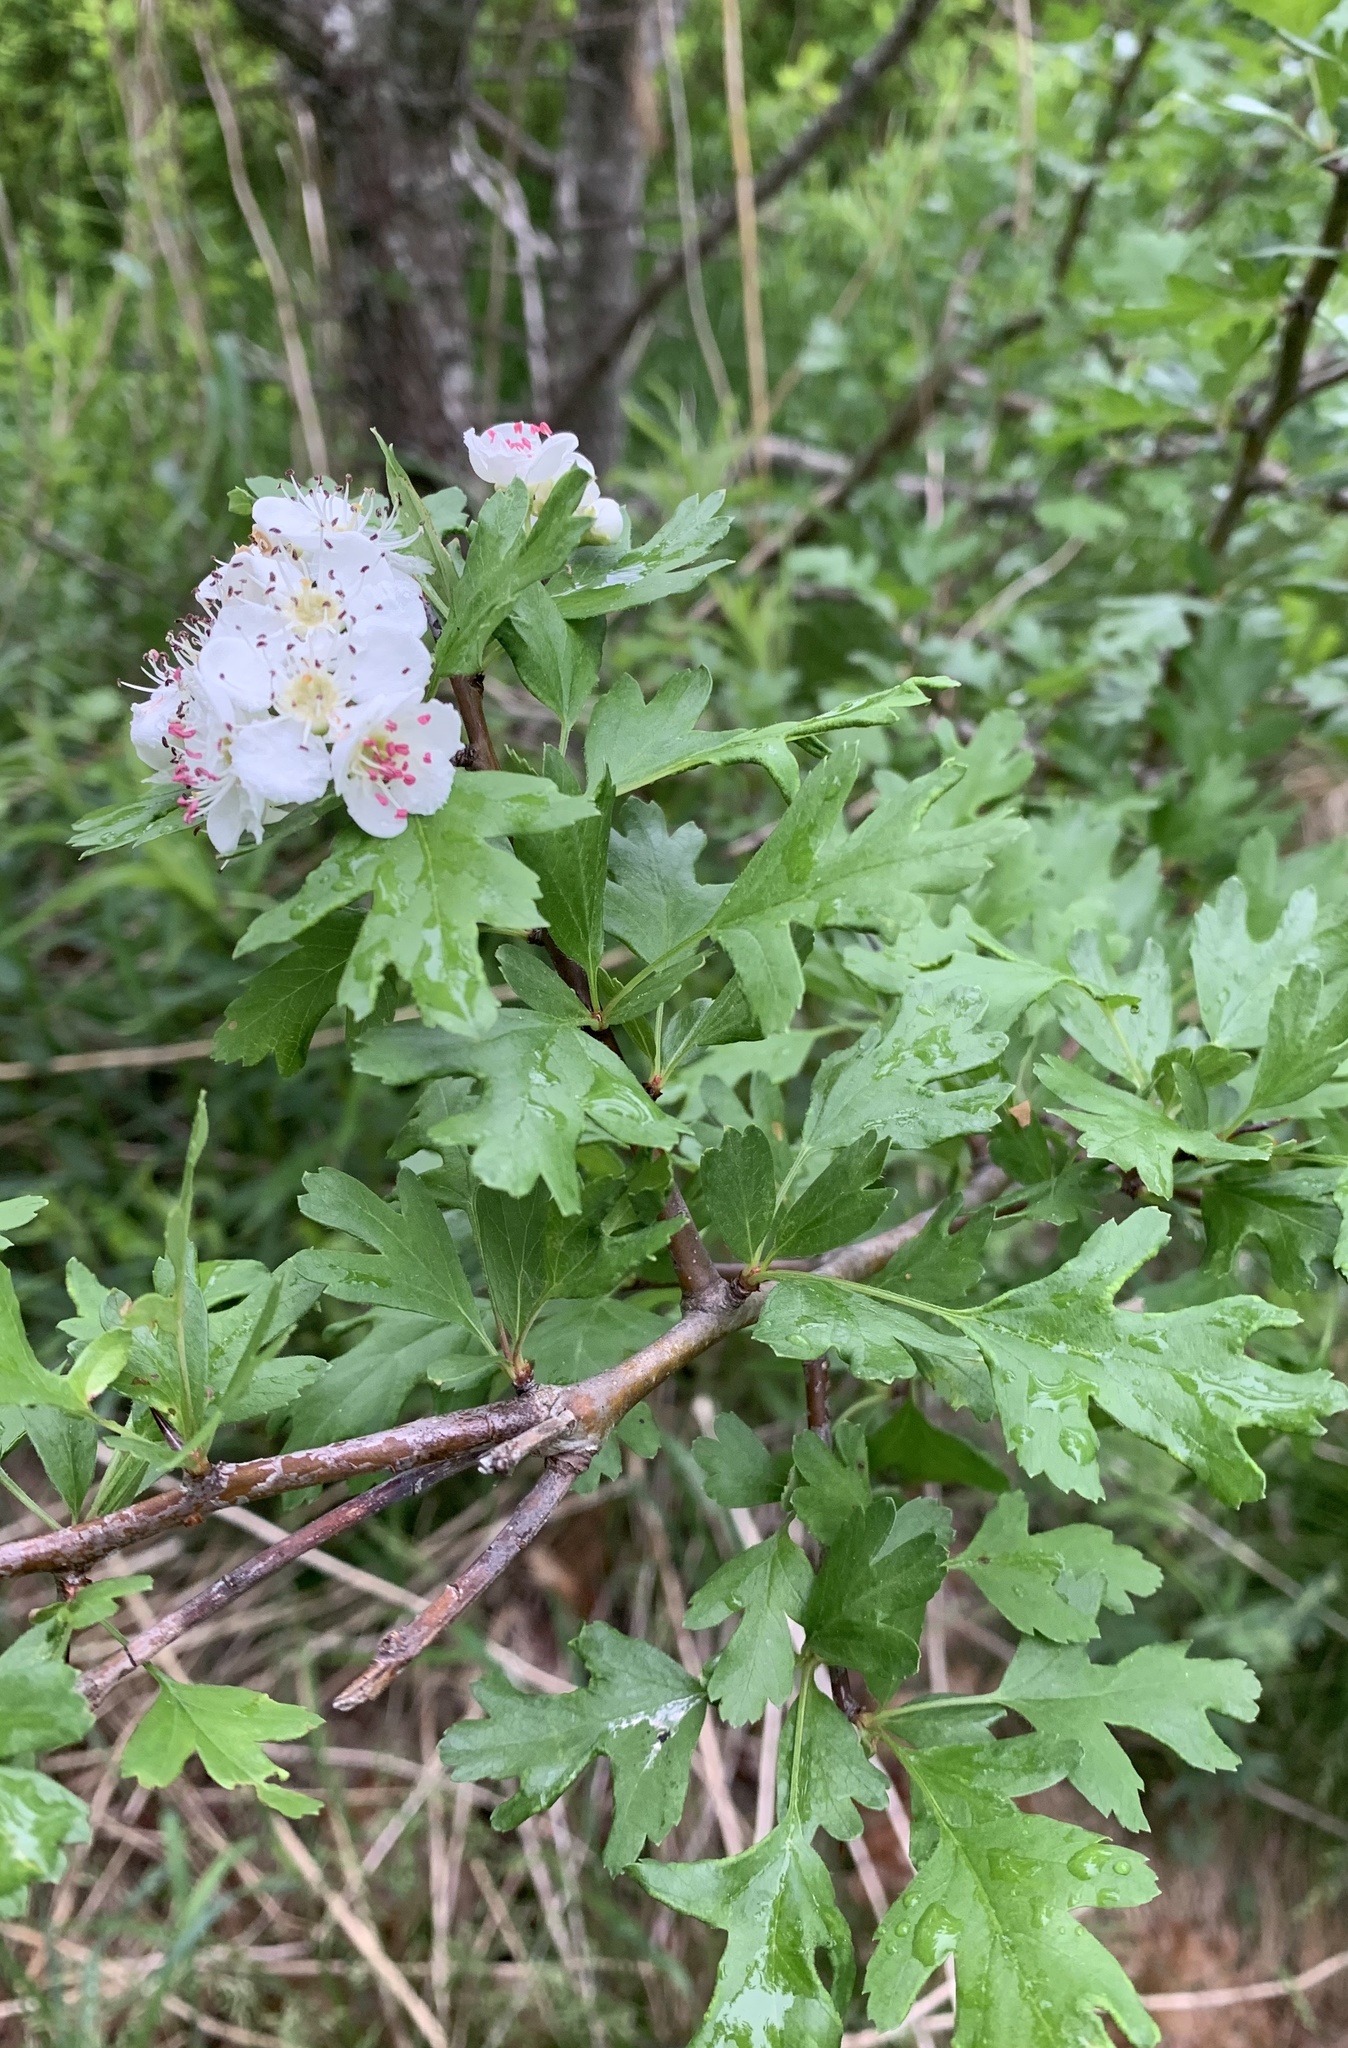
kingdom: Plantae
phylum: Tracheophyta
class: Magnoliopsida
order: Rosales
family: Rosaceae
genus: Crataegus
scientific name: Crataegus monogyna
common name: Hawthorn
